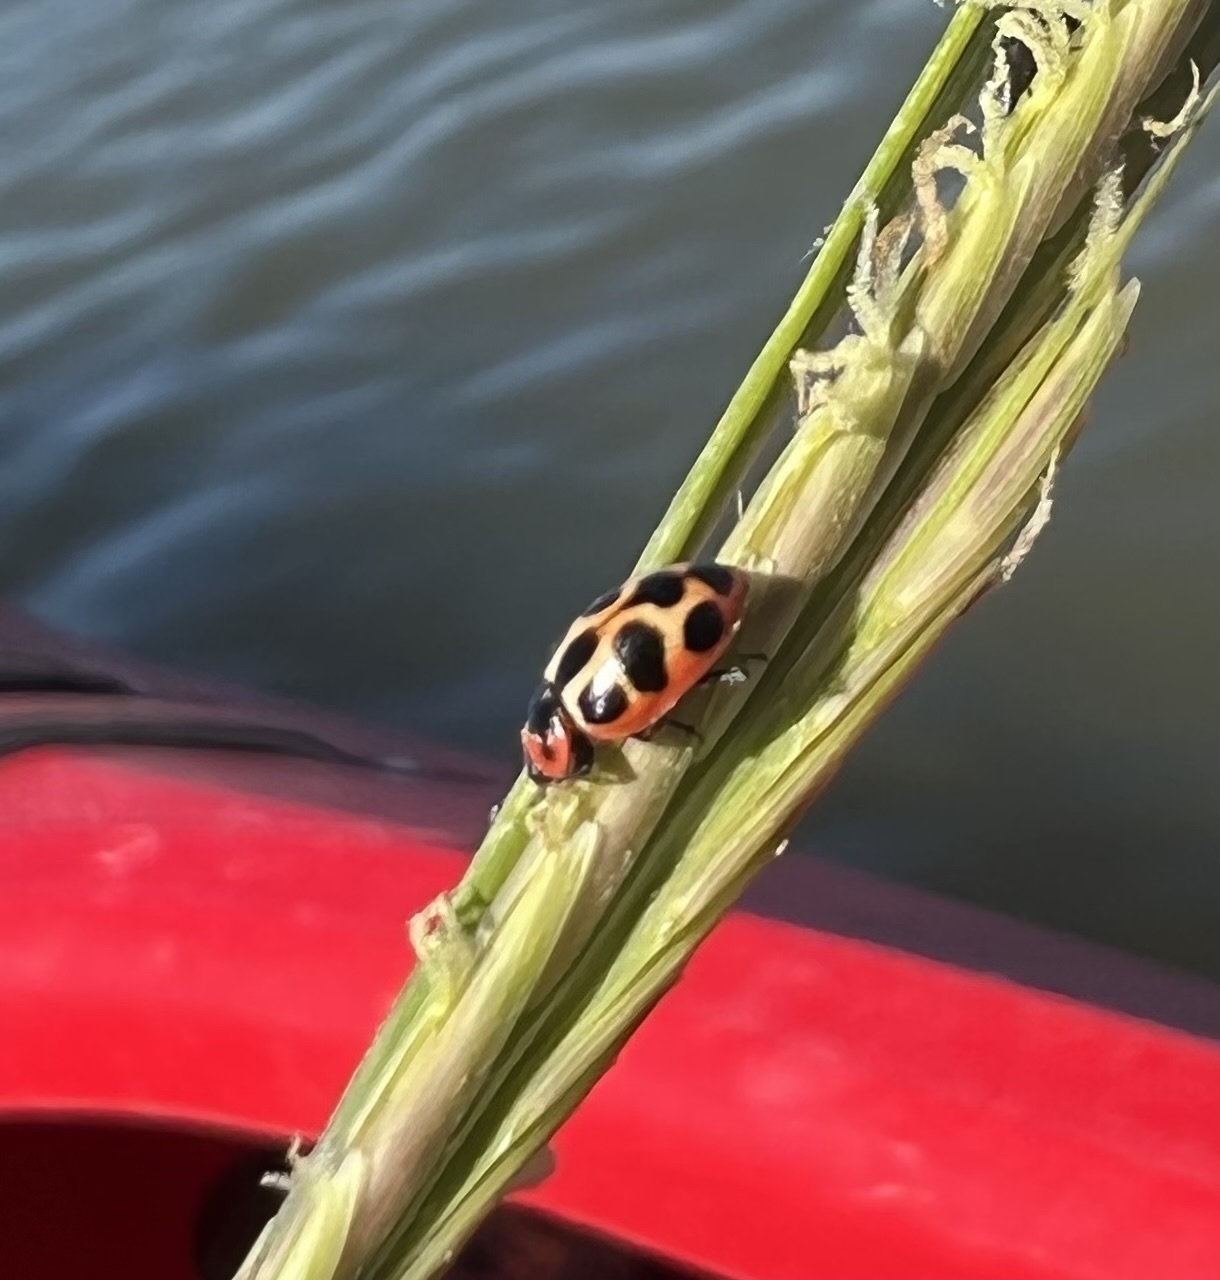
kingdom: Animalia
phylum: Arthropoda
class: Insecta
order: Coleoptera
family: Coccinellidae
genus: Naemia
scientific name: Naemia seriata
